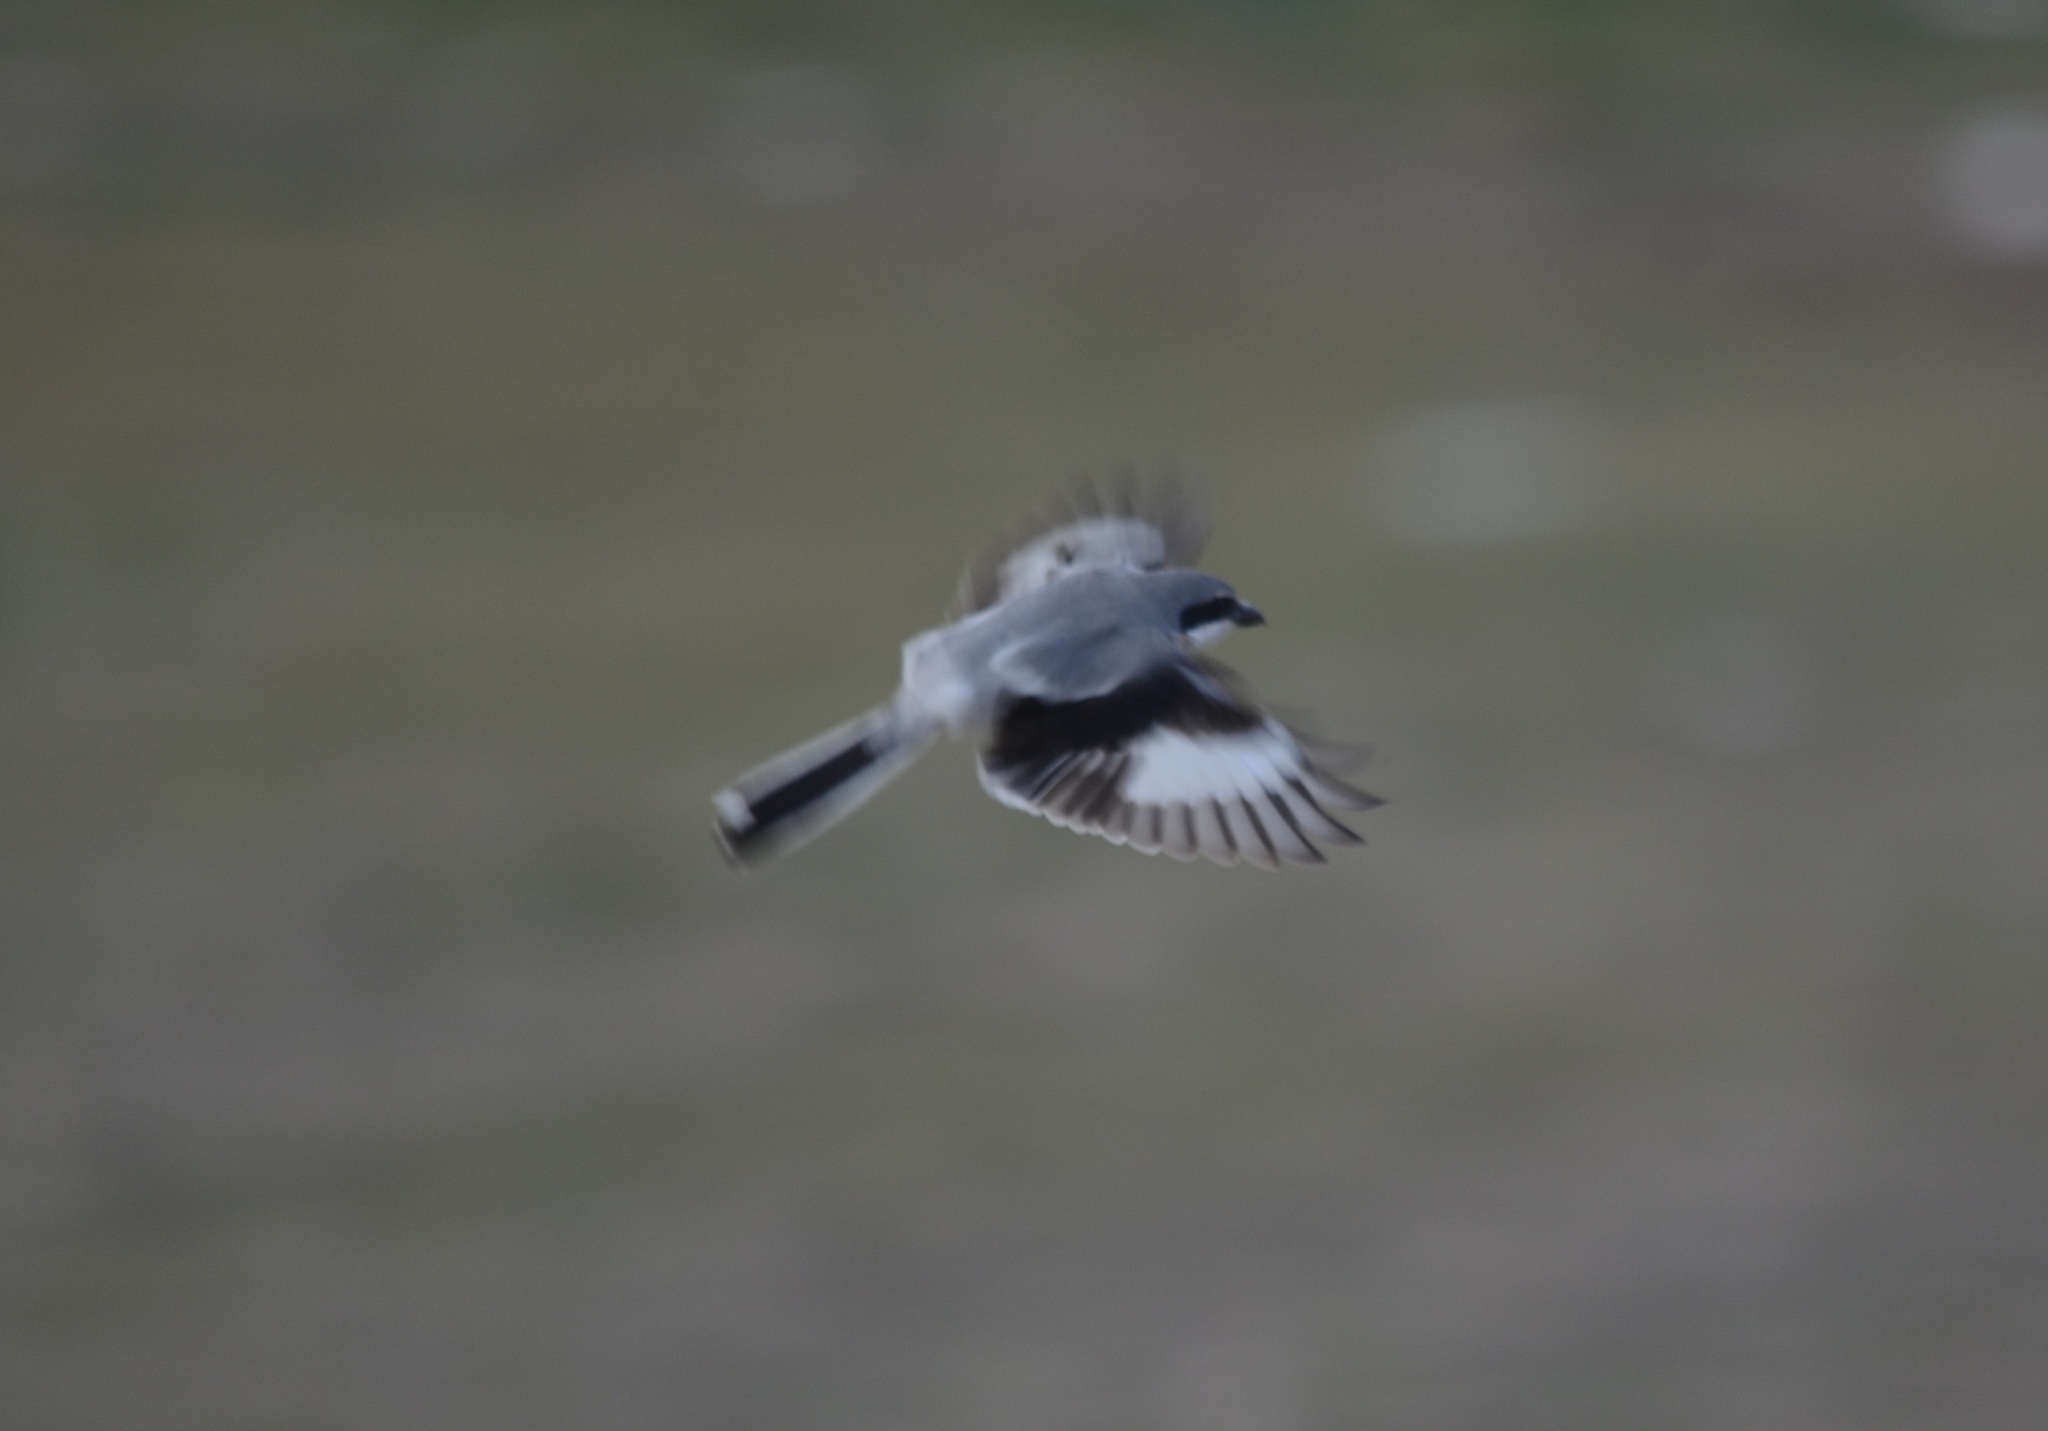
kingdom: Animalia
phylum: Chordata
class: Aves
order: Passeriformes
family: Laniidae
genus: Lanius
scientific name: Lanius excubitor
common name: Great grey shrike
